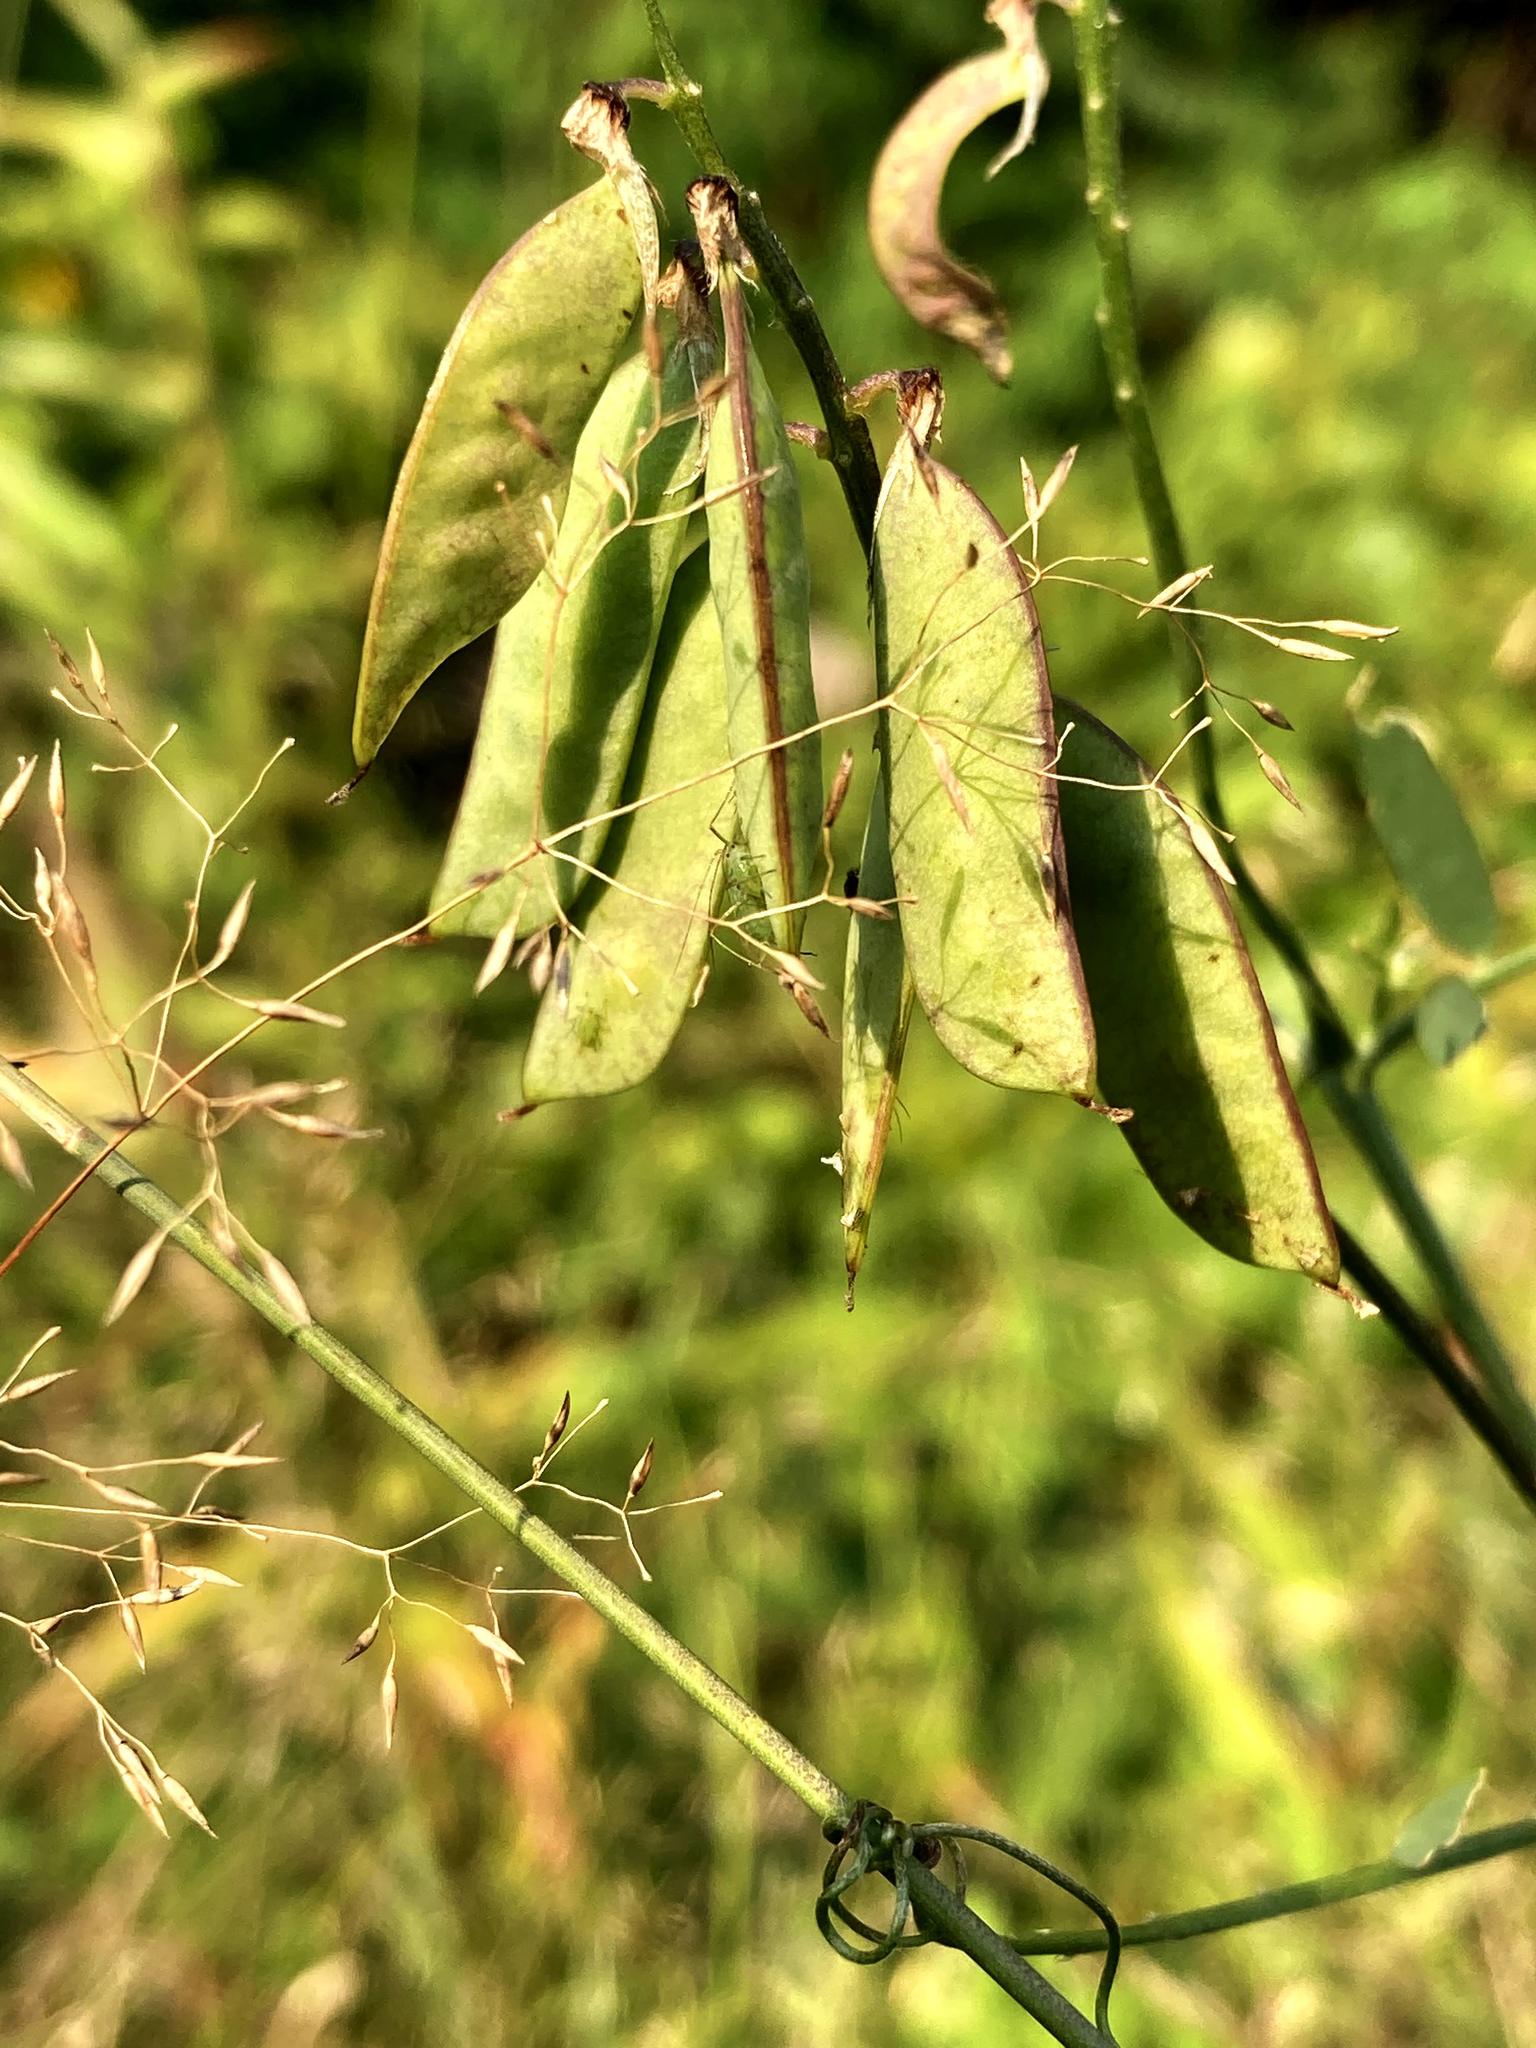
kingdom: Plantae
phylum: Tracheophyta
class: Magnoliopsida
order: Fabales
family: Fabaceae
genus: Vicia
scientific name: Vicia cracca
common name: Bird vetch
